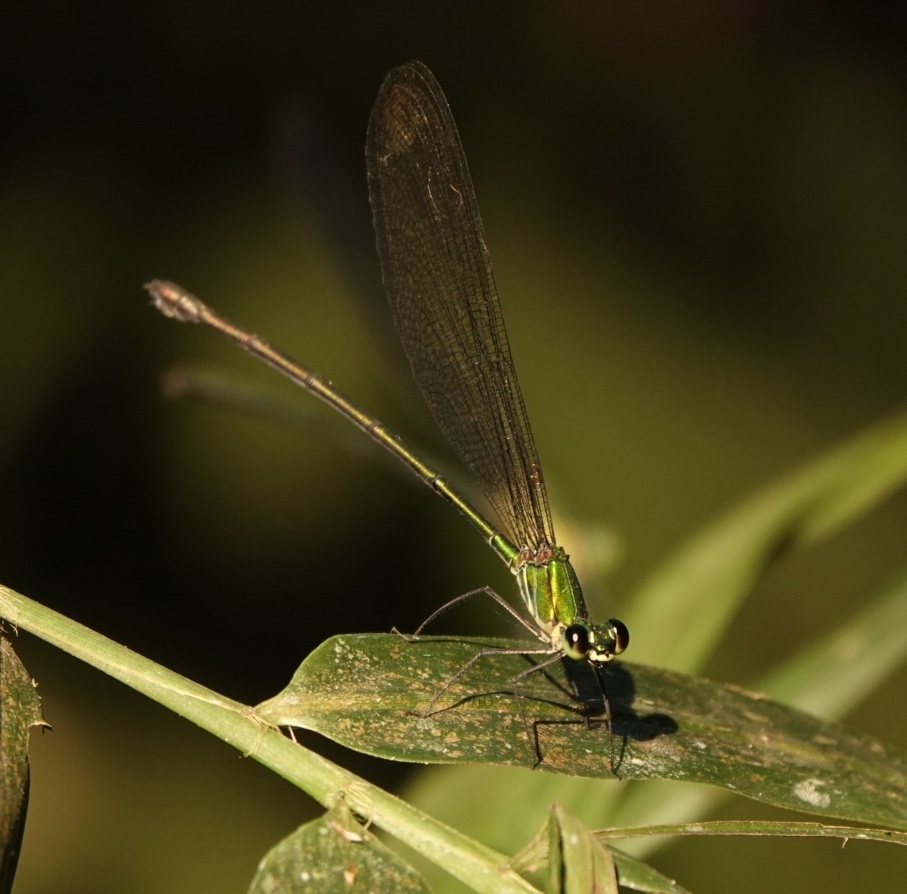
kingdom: Animalia
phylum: Arthropoda
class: Insecta
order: Odonata
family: Calopterygidae
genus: Vestalis
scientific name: Vestalis gracilis
